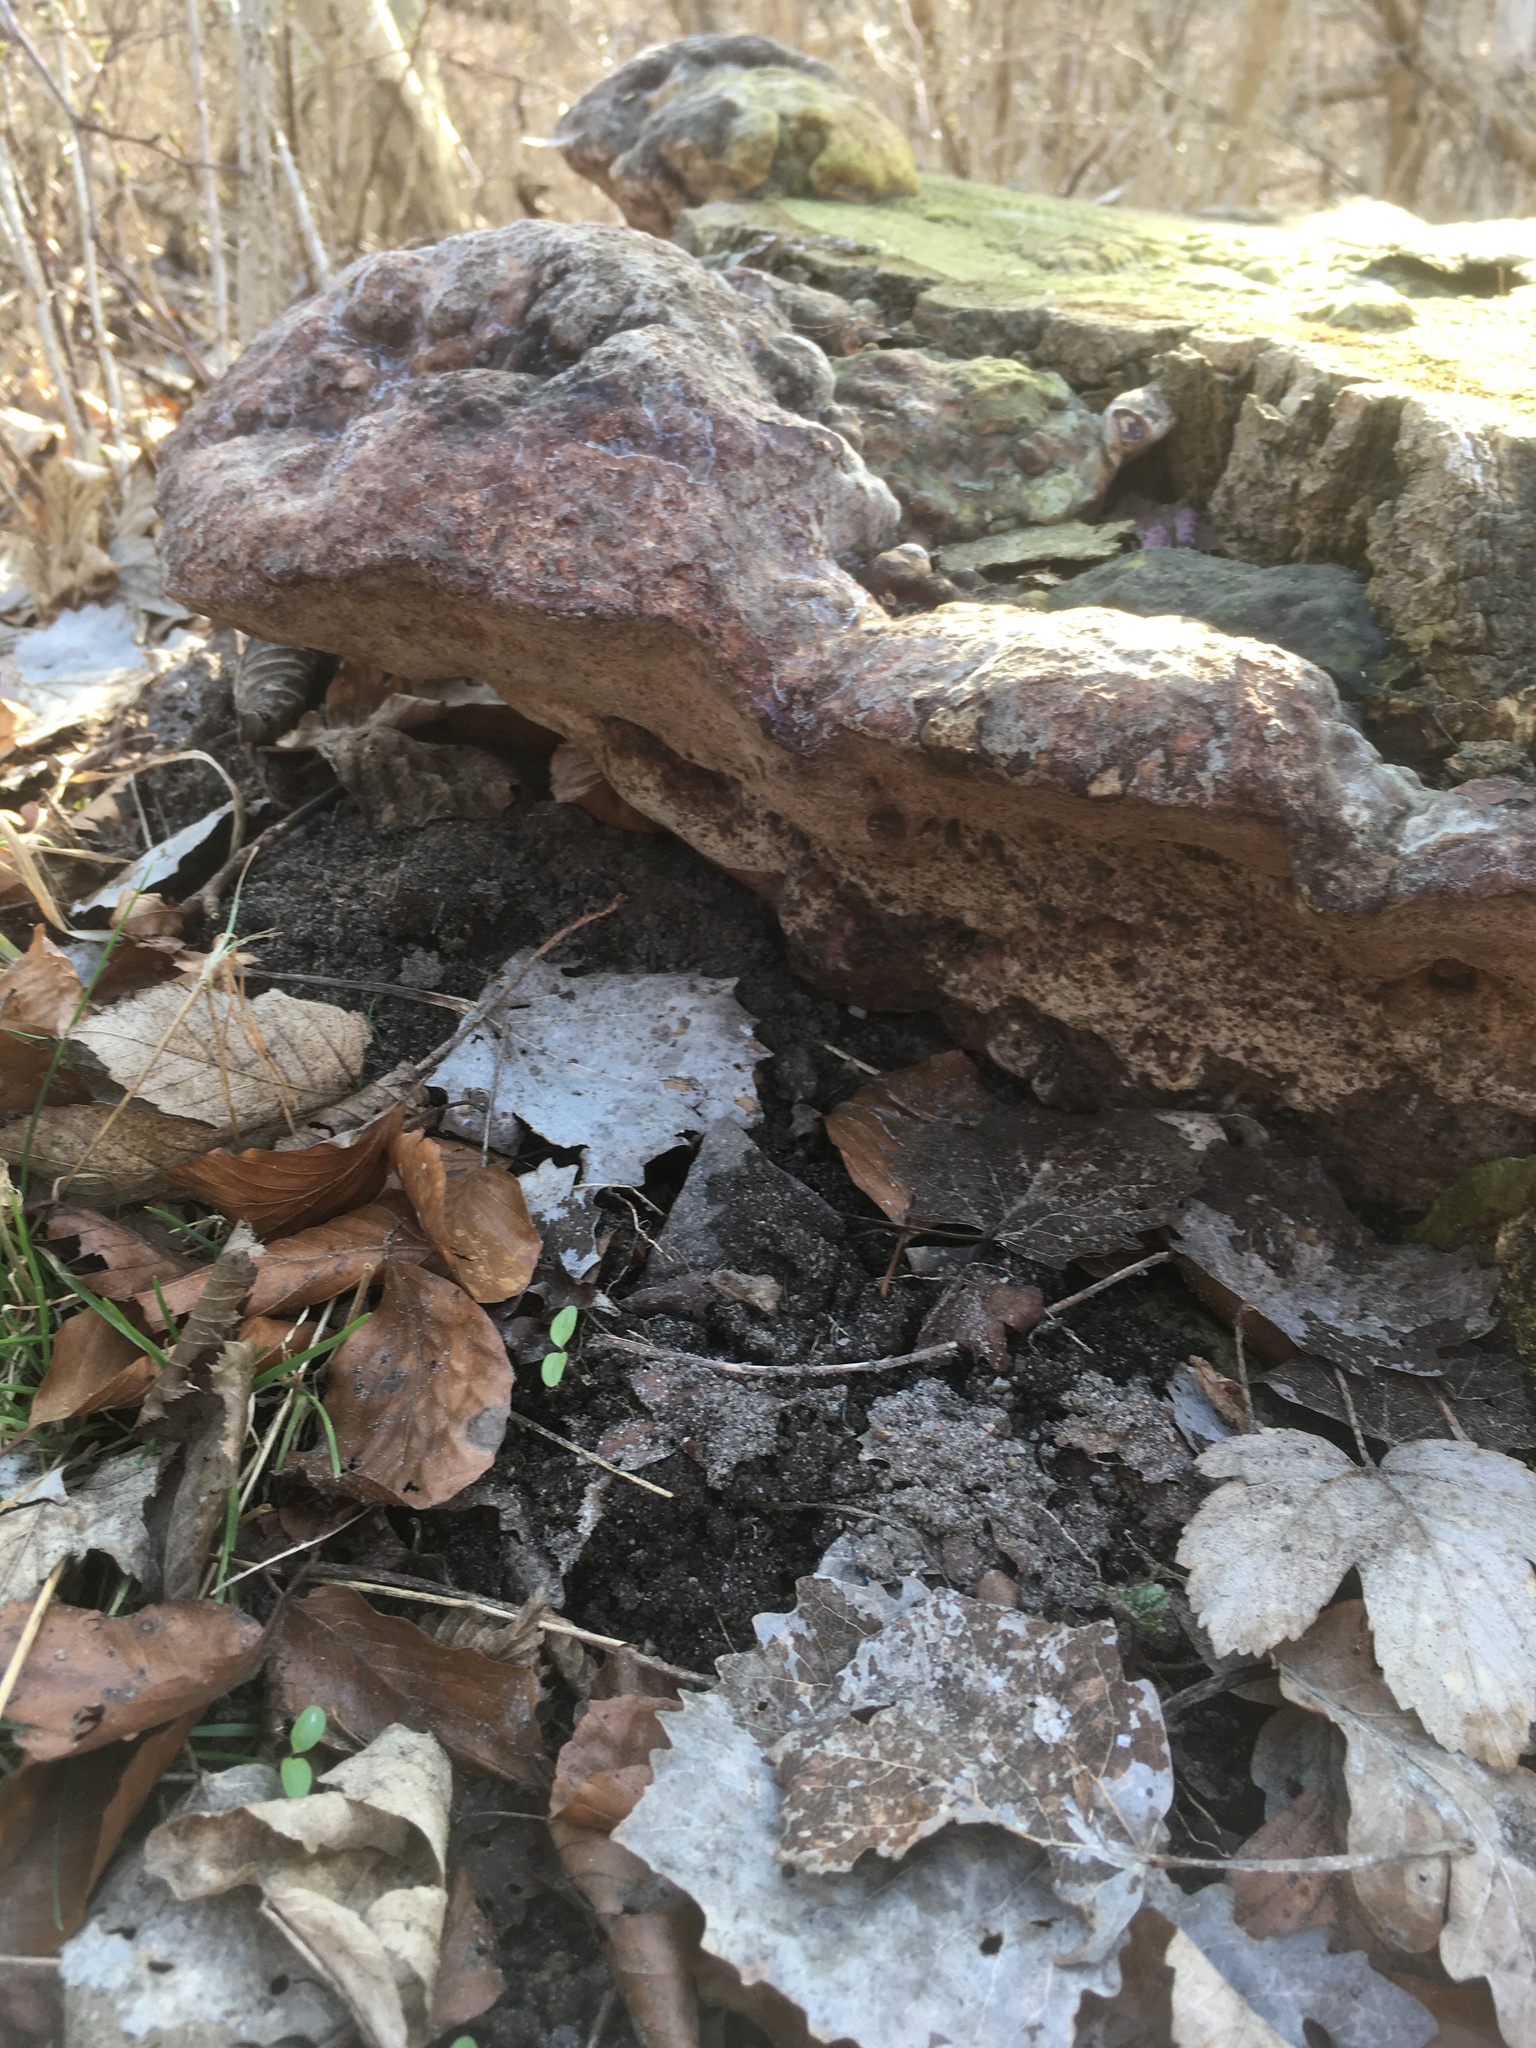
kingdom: Fungi
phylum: Basidiomycota
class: Agaricomycetes
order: Polyporales
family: Polyporaceae
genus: Vanderbylia
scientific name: Vanderbylia fraxinea
